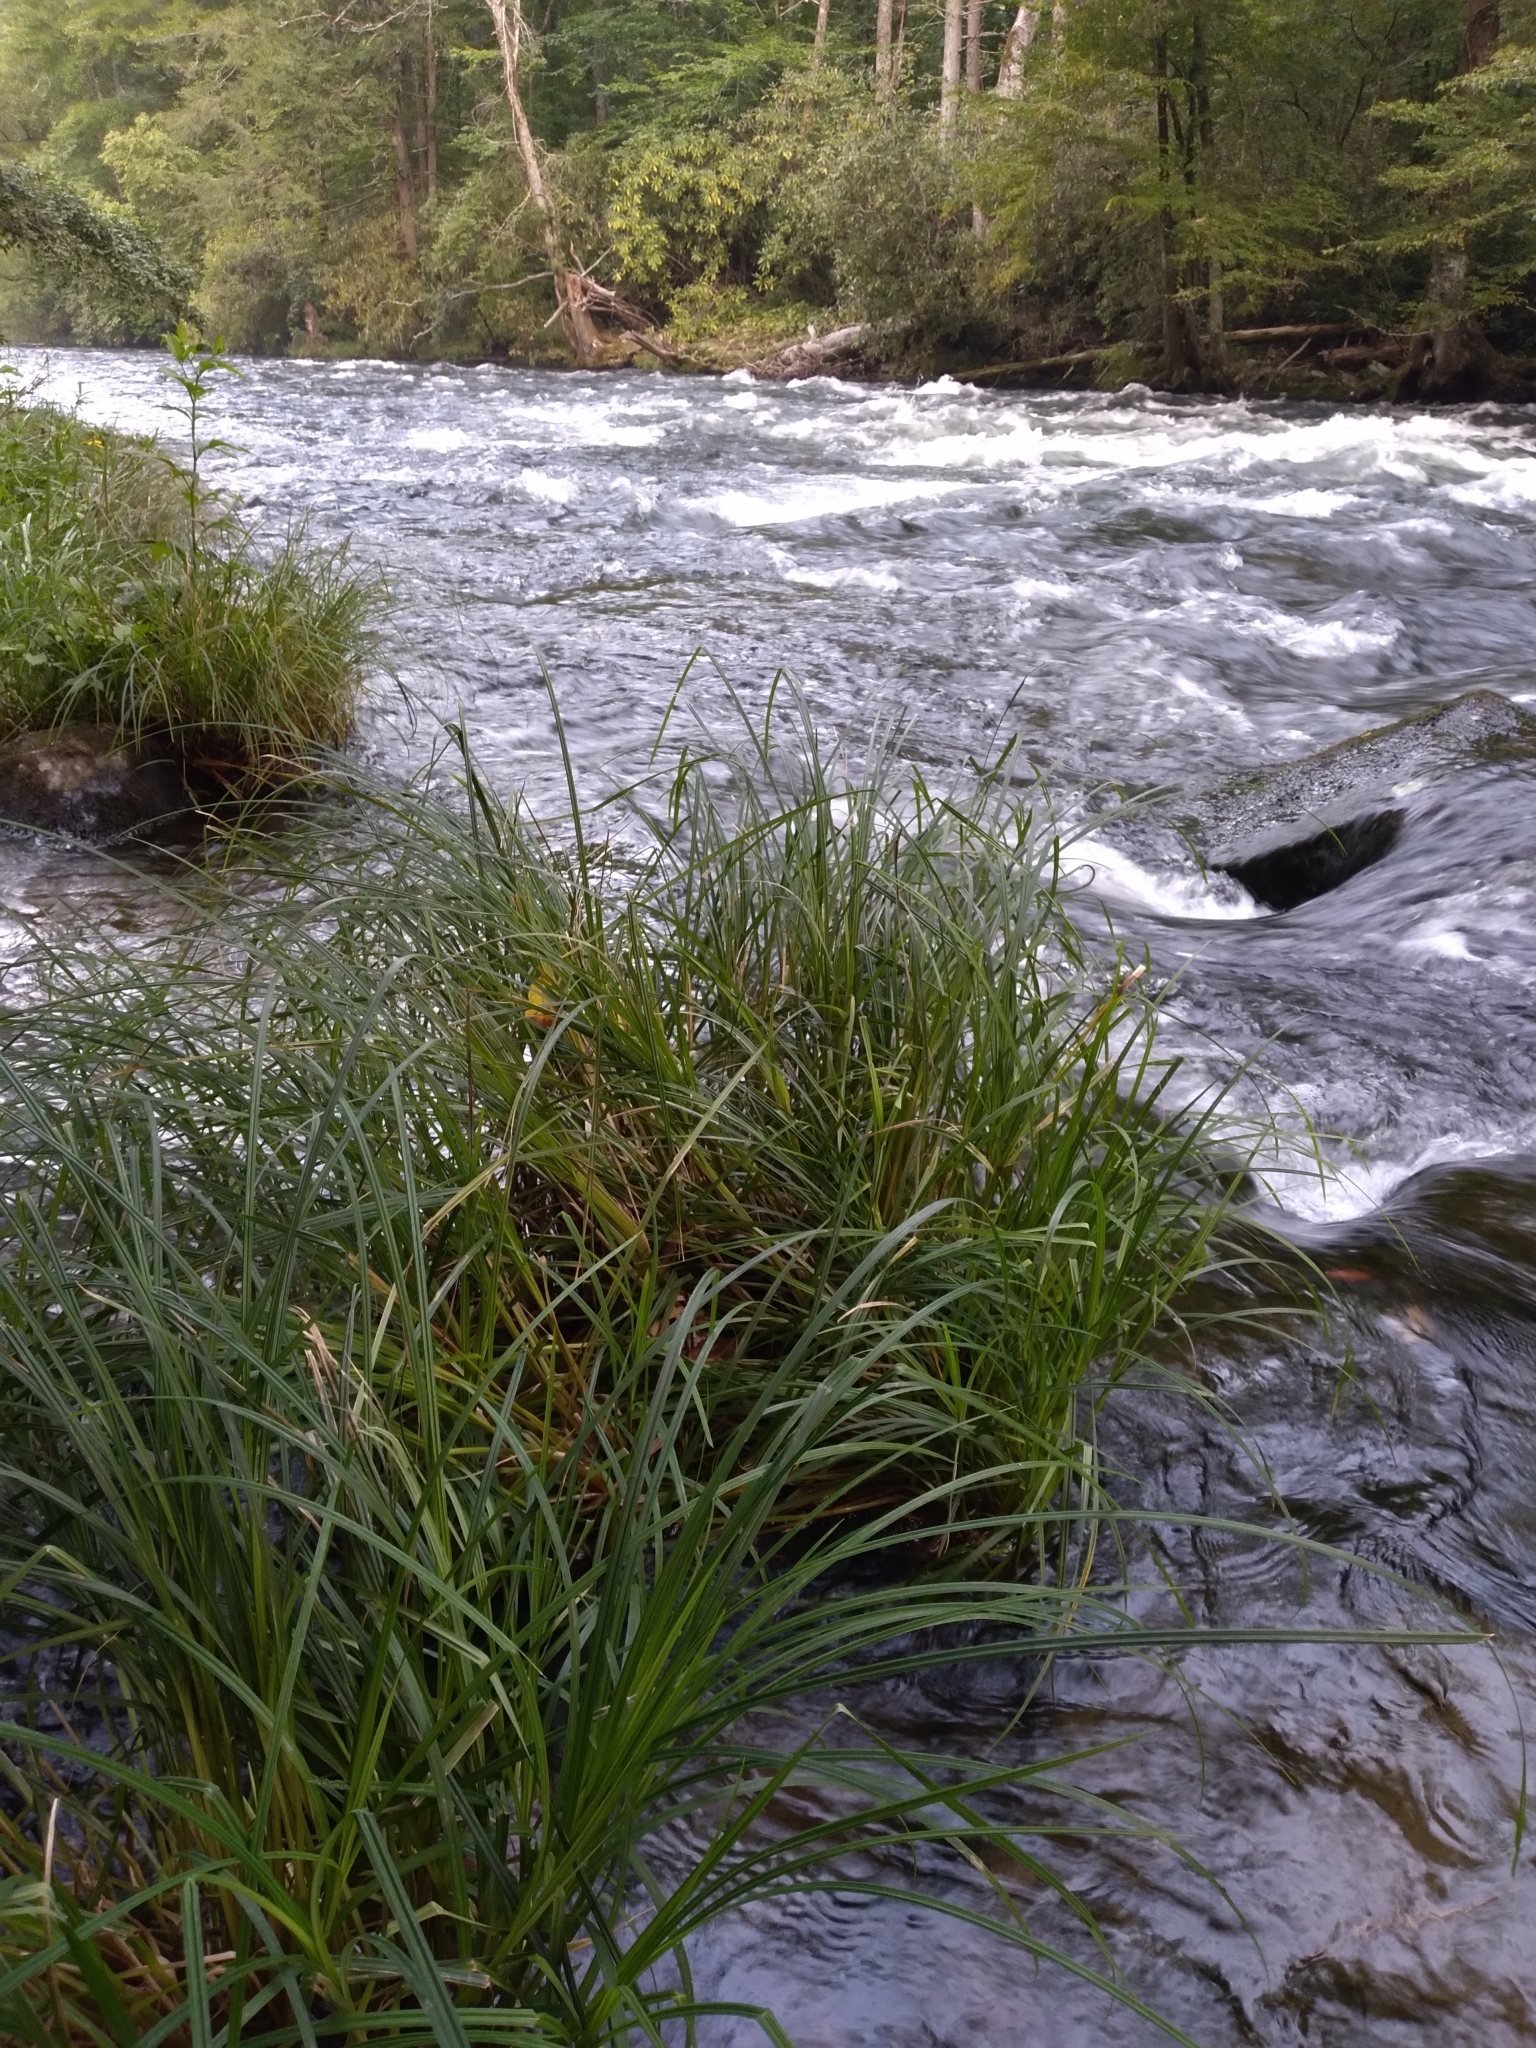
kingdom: Plantae
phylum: Tracheophyta
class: Liliopsida
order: Poales
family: Cyperaceae
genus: Carex
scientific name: Carex torta
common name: Twisted sedge
